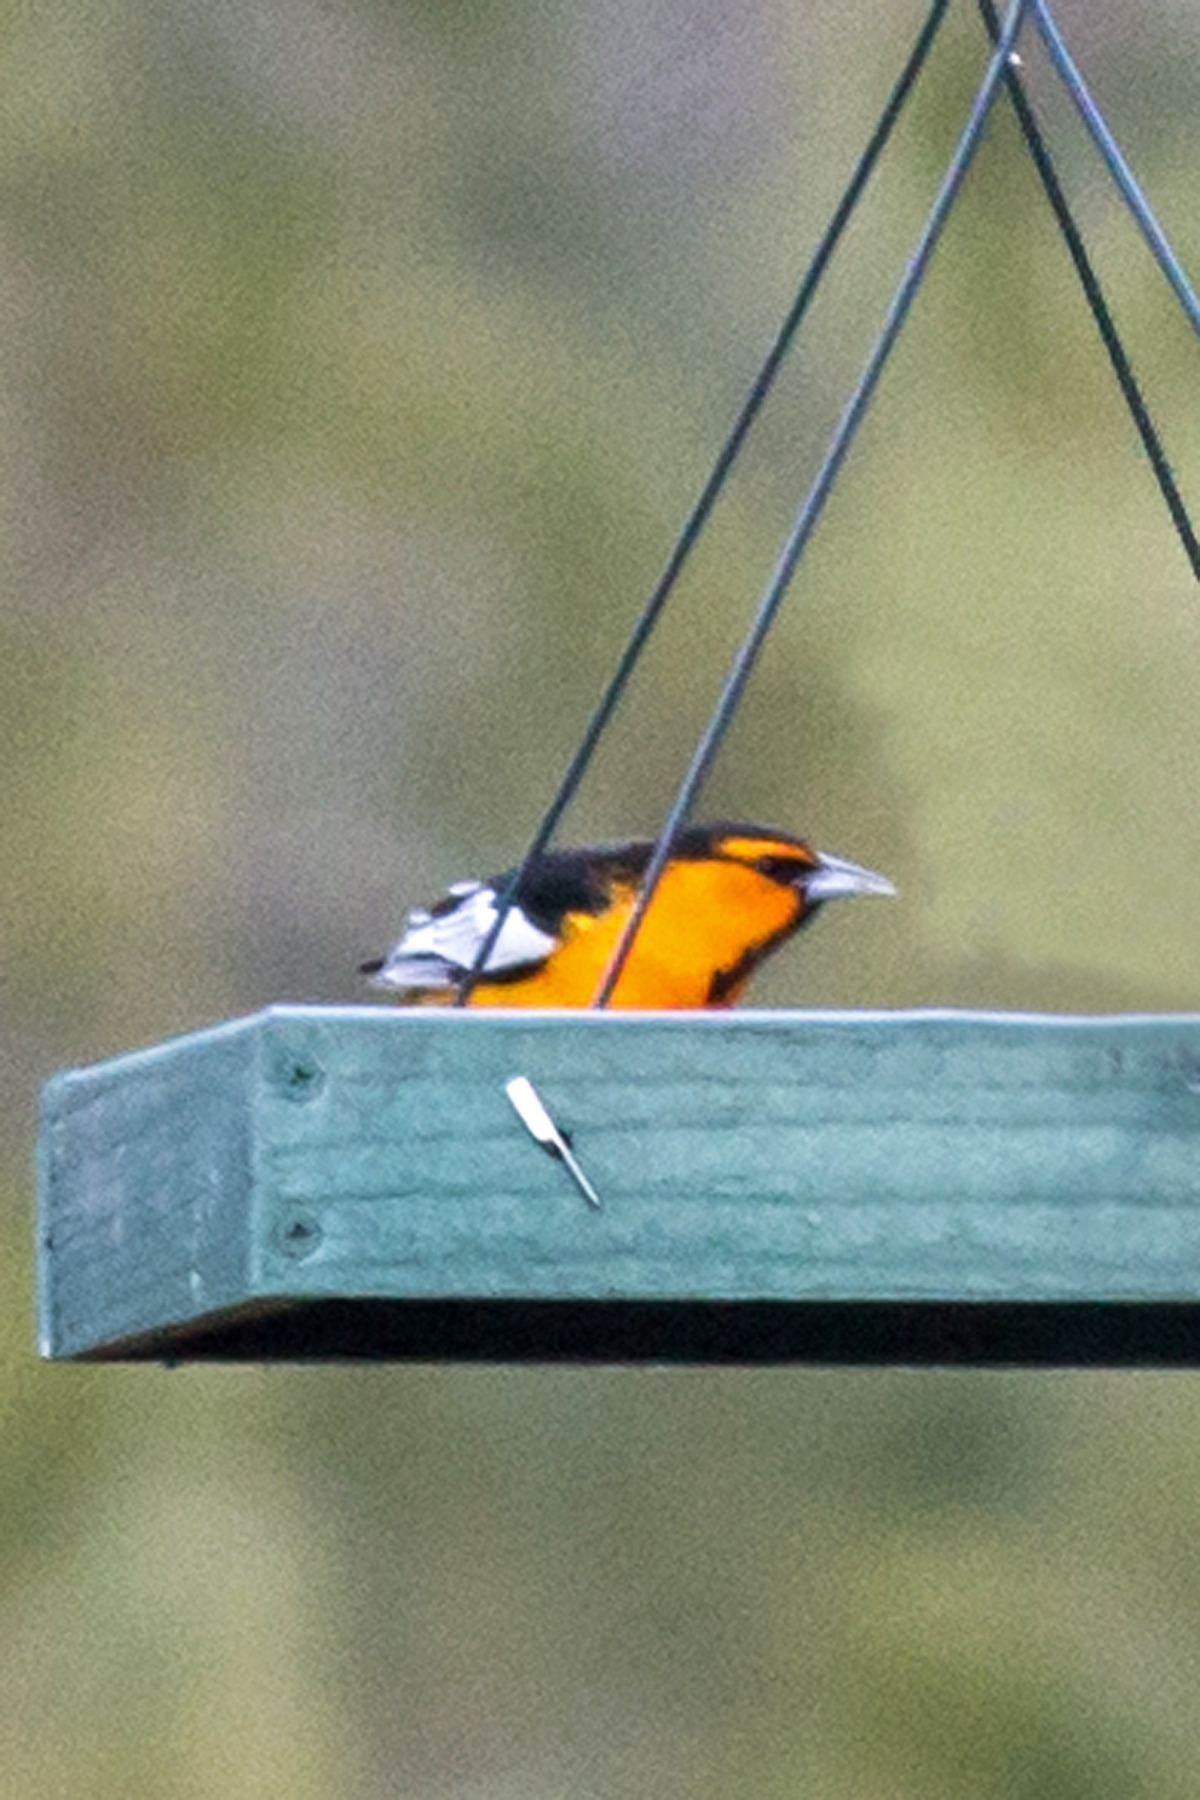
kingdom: Animalia
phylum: Chordata
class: Aves
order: Passeriformes
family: Icteridae
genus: Icterus
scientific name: Icterus bullockii
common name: Bullock's oriole
